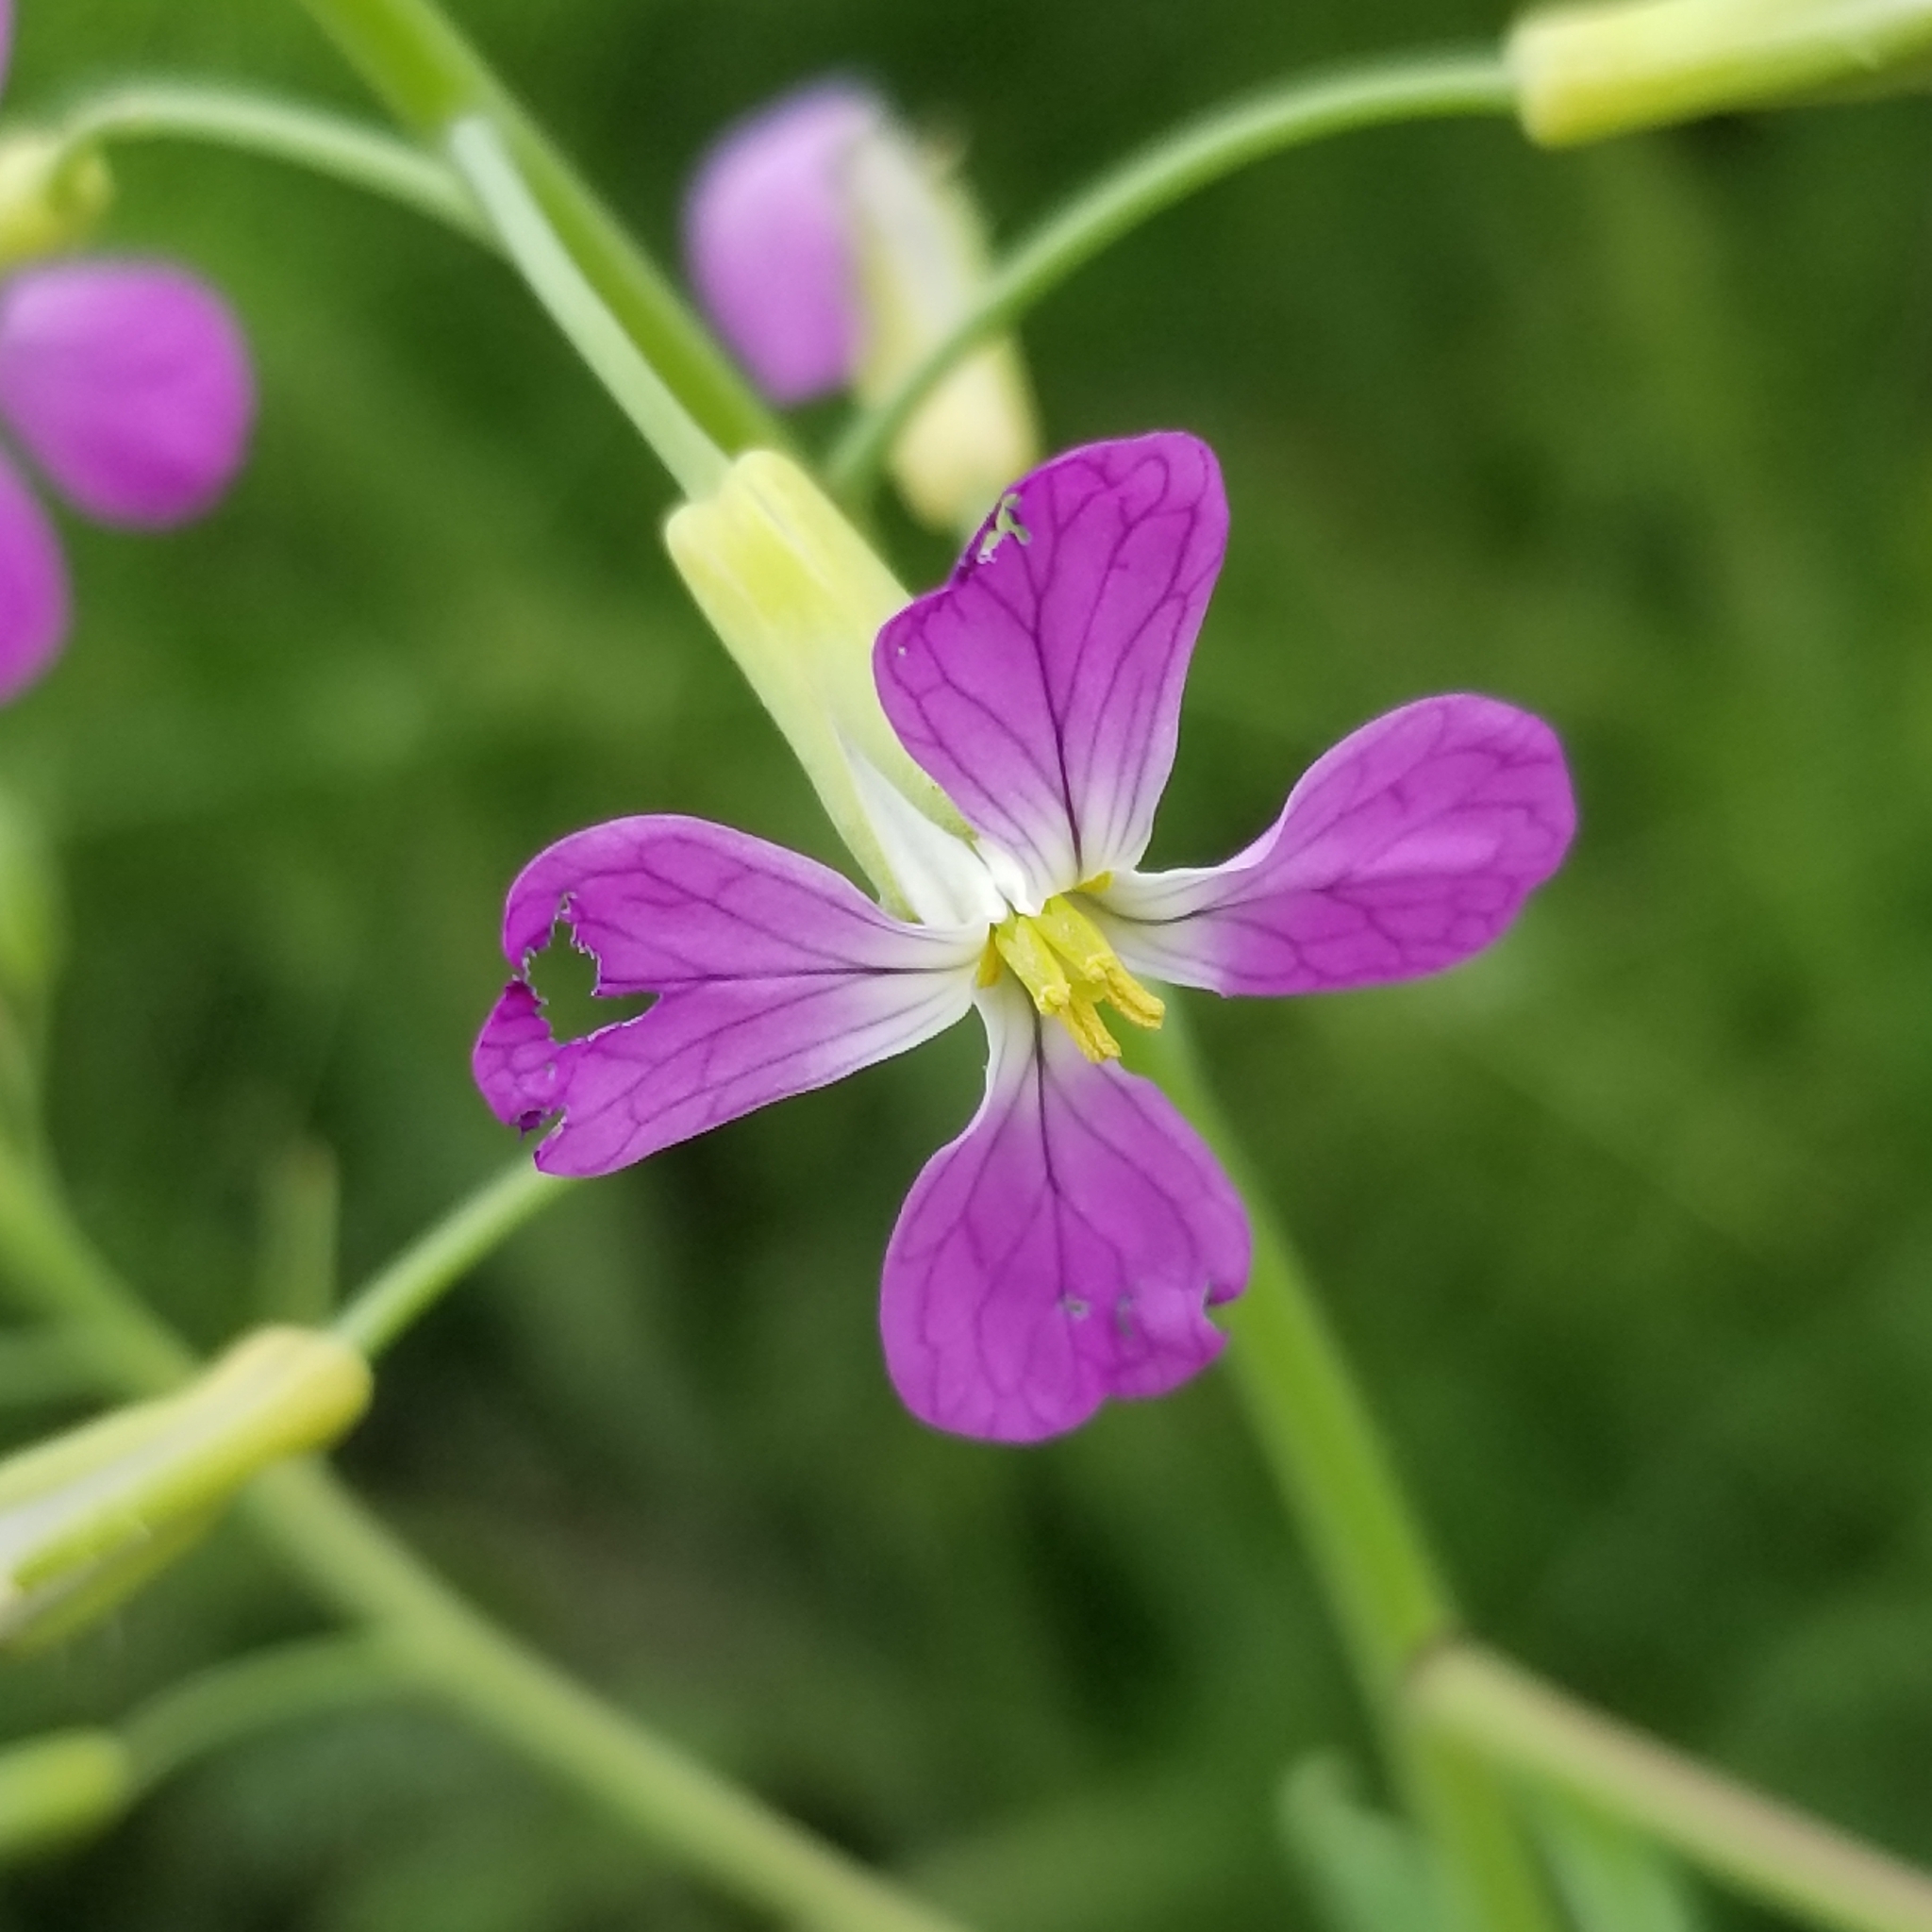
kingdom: Plantae
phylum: Tracheophyta
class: Magnoliopsida
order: Brassicales
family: Brassicaceae
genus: Raphanus
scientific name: Raphanus sativus
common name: Cultivated radish
